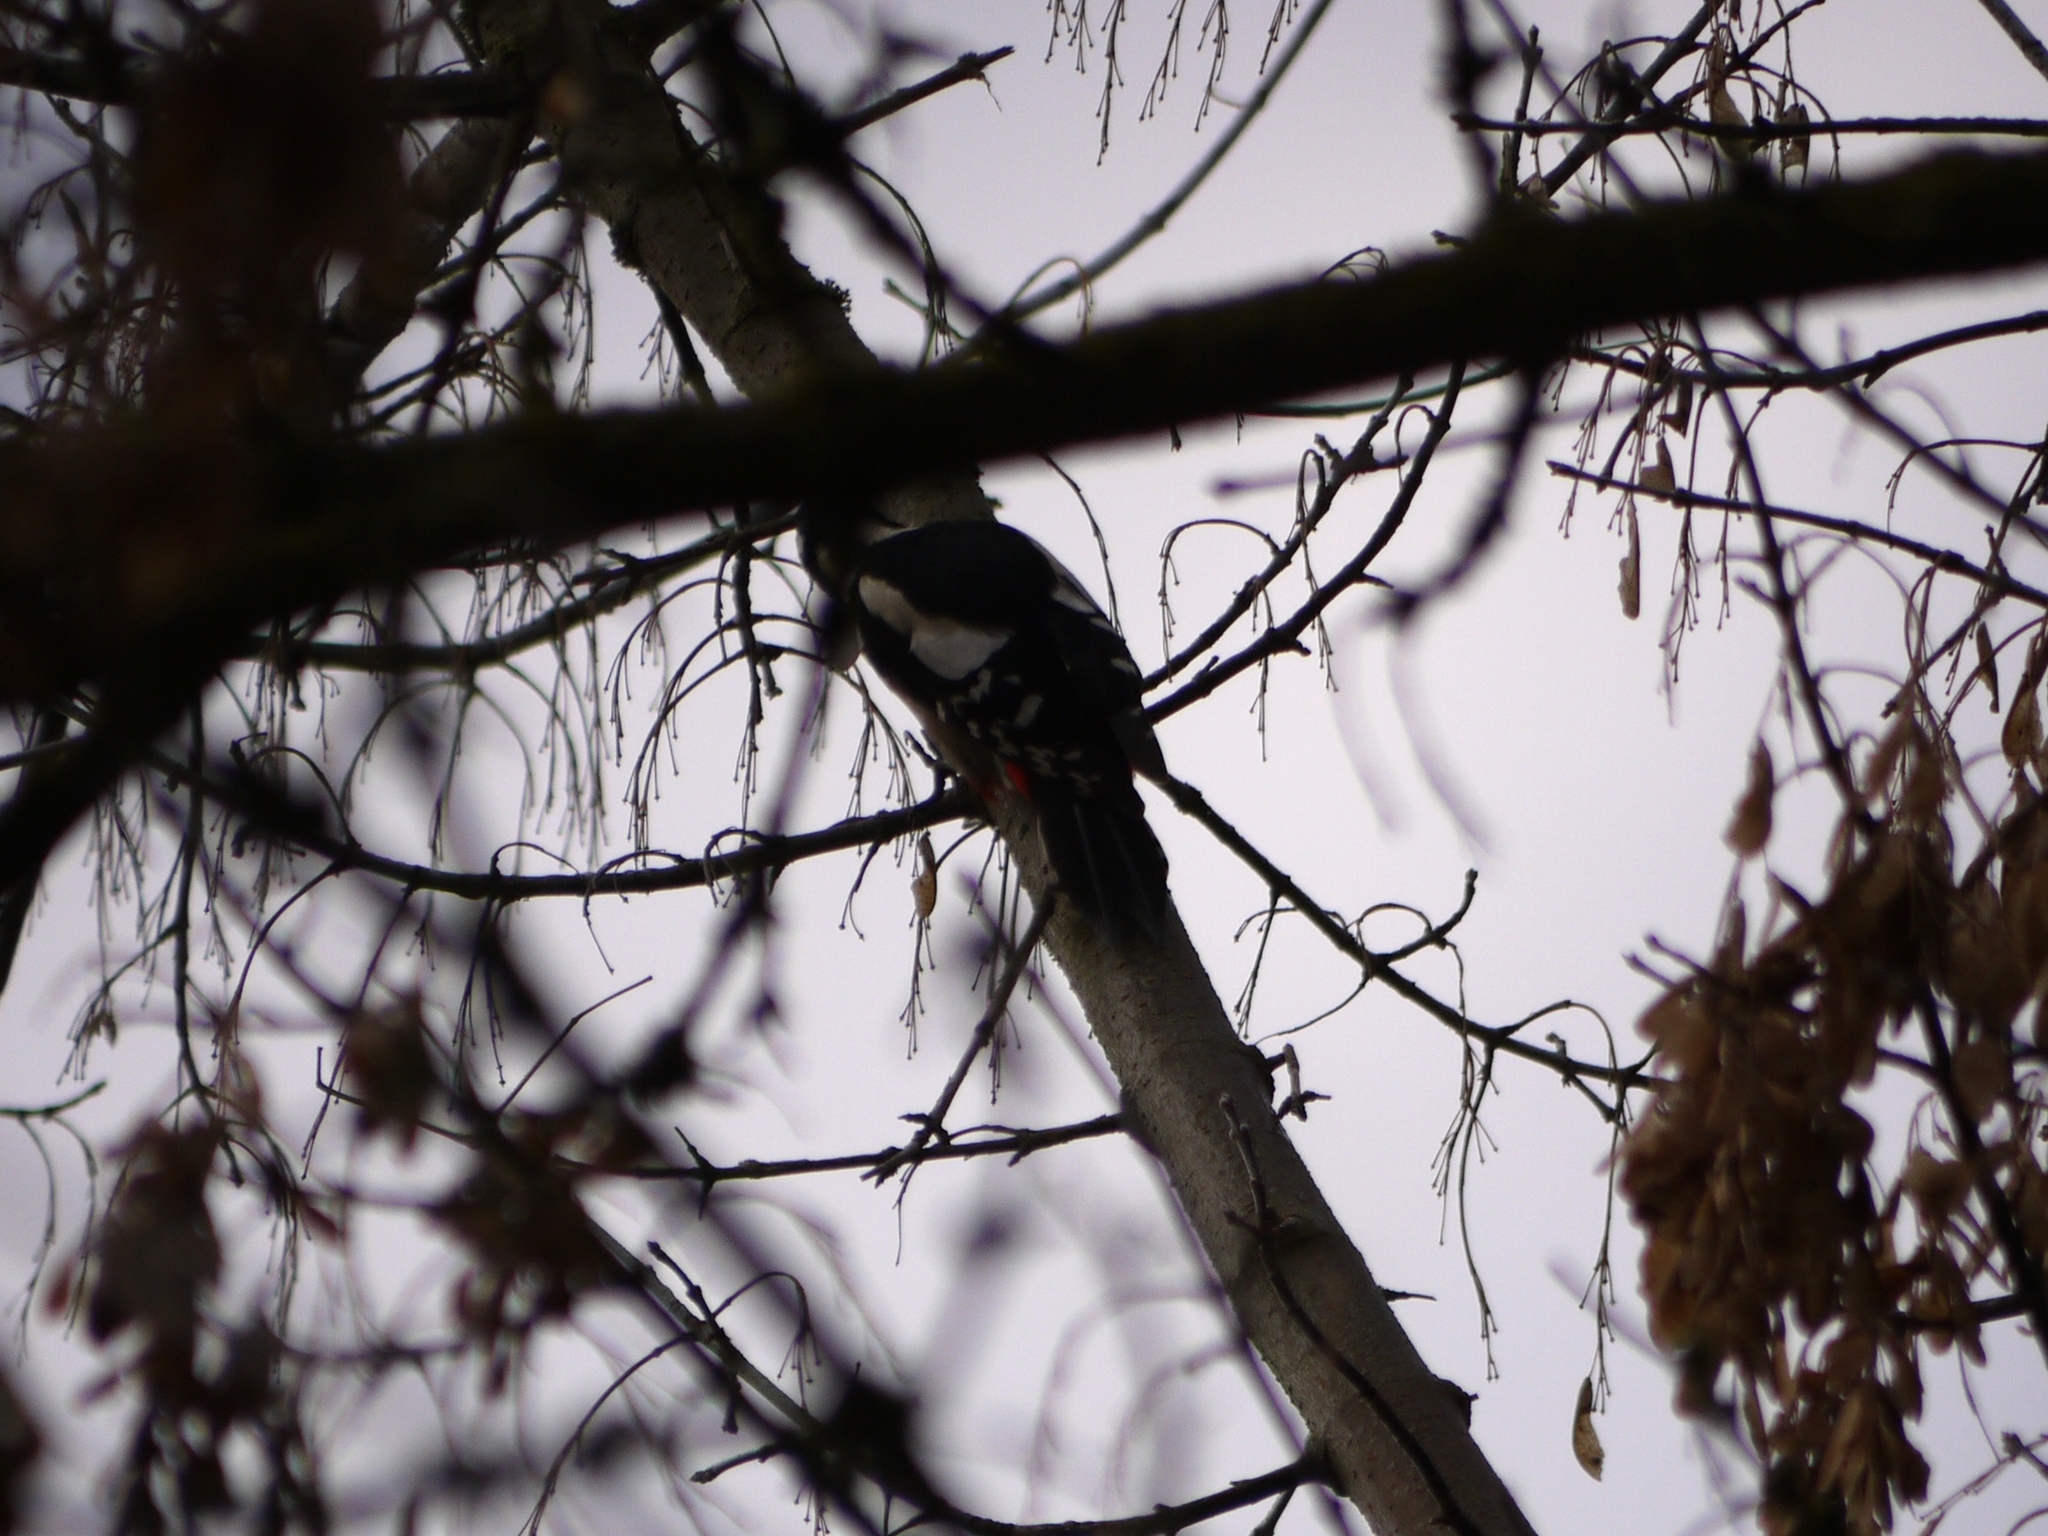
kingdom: Animalia
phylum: Chordata
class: Aves
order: Piciformes
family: Picidae
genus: Dendrocopos
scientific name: Dendrocopos major
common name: Great spotted woodpecker
